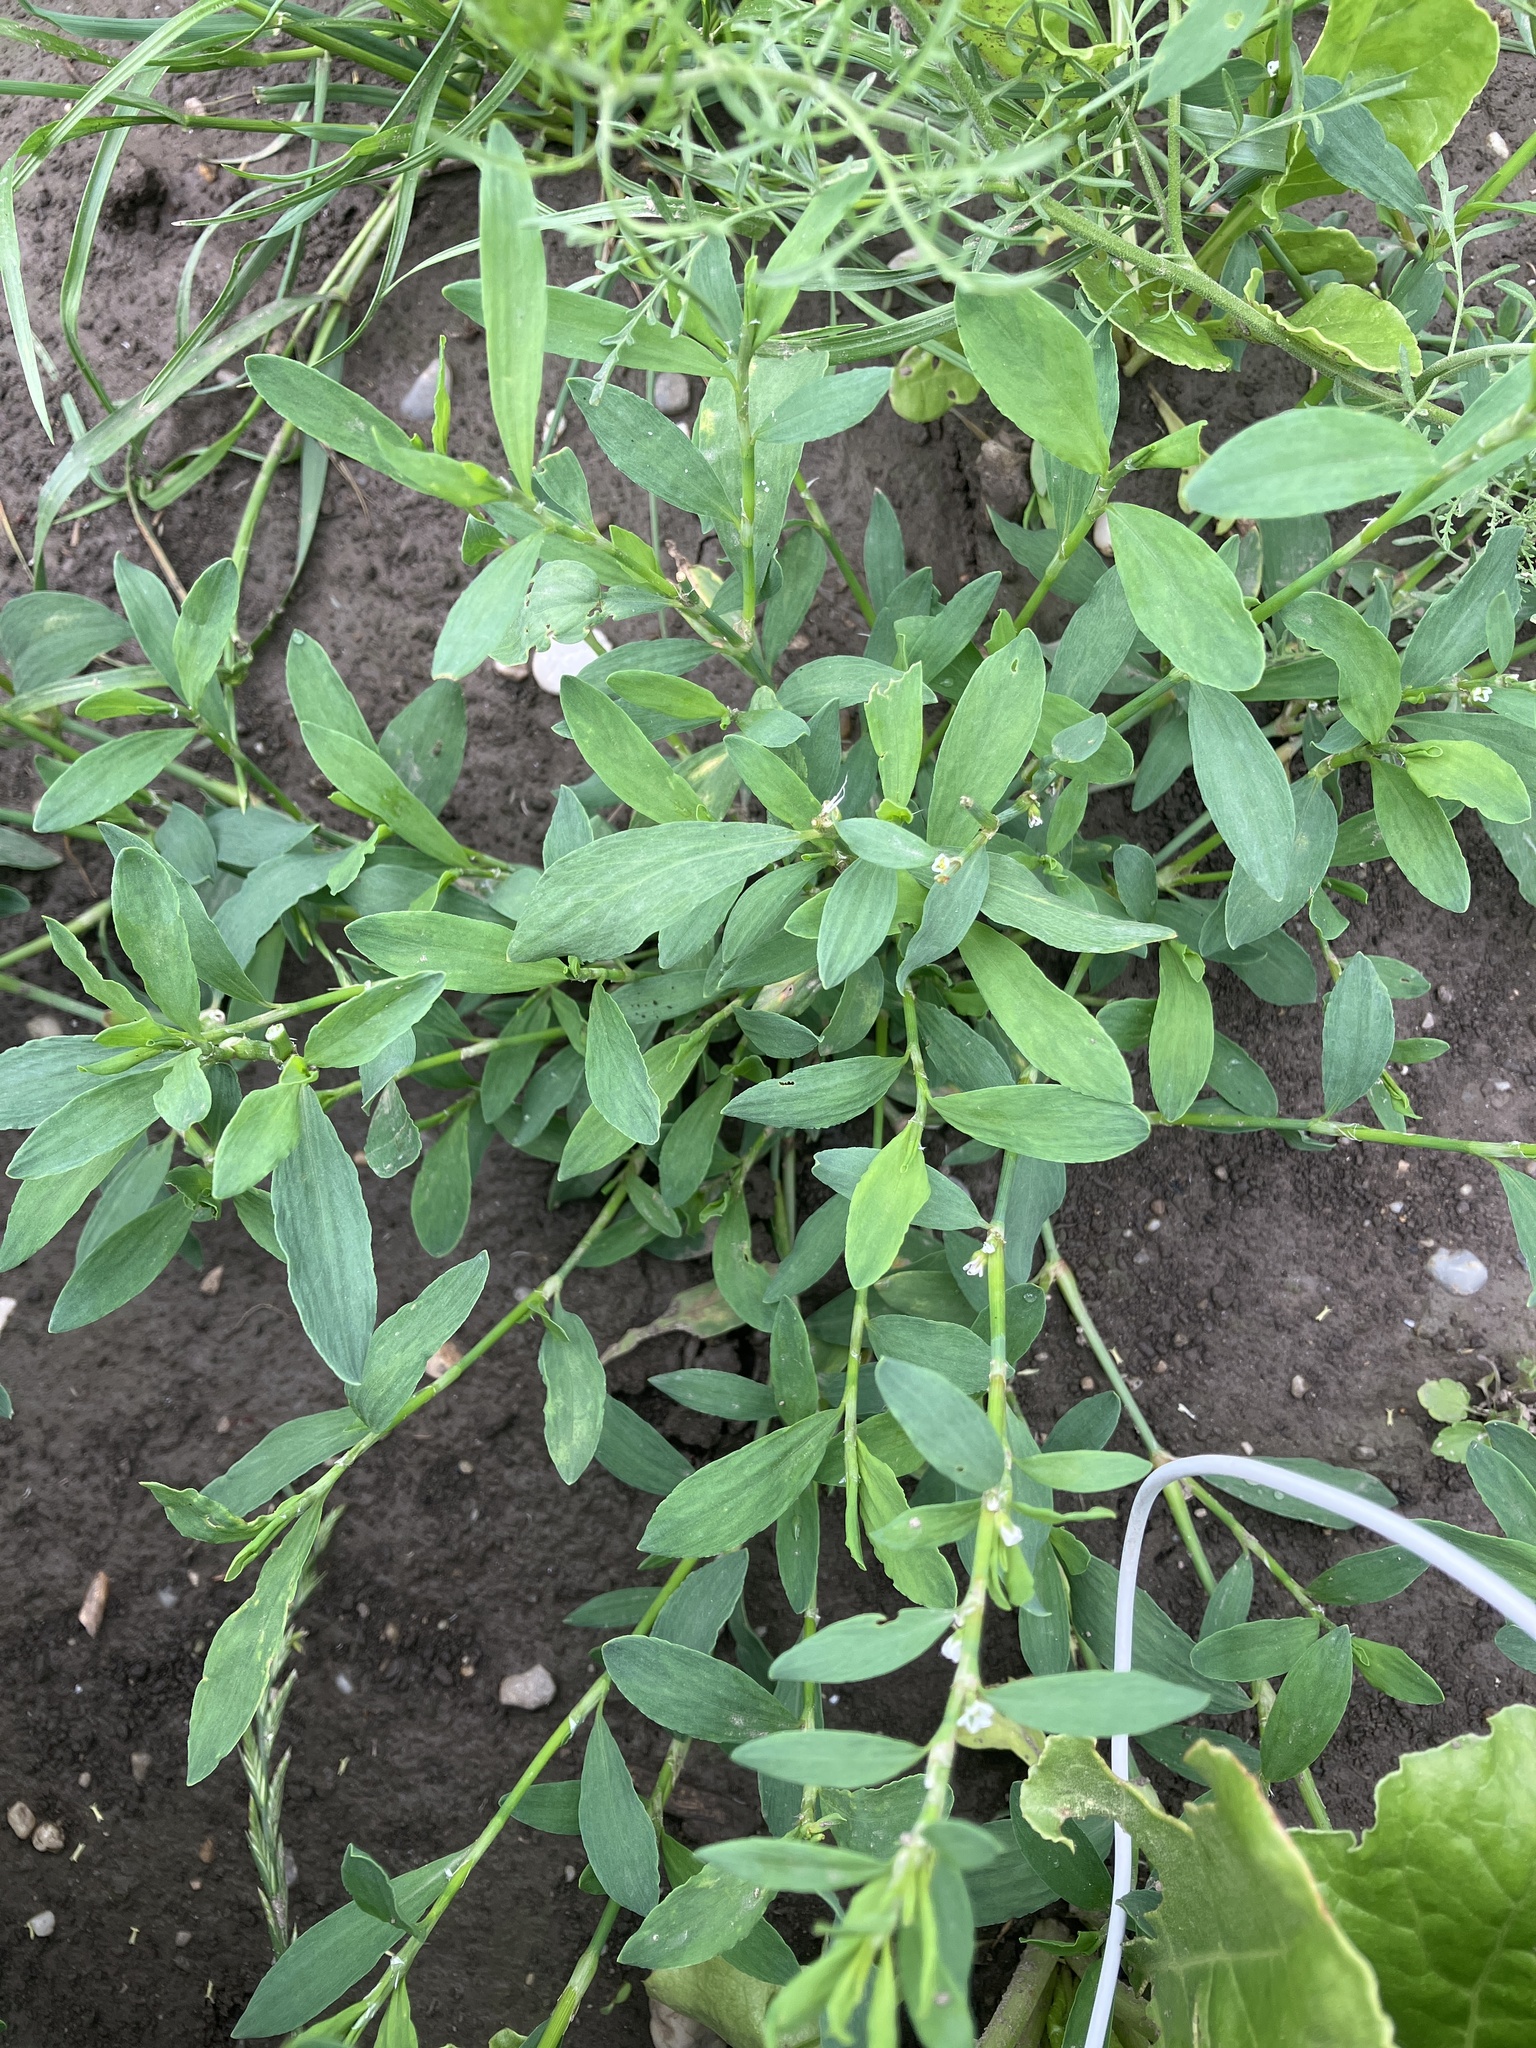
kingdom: Plantae
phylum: Tracheophyta
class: Magnoliopsida
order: Caryophyllales
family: Polygonaceae
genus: Polygonum
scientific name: Polygonum aviculare
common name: Prostrate knotweed
